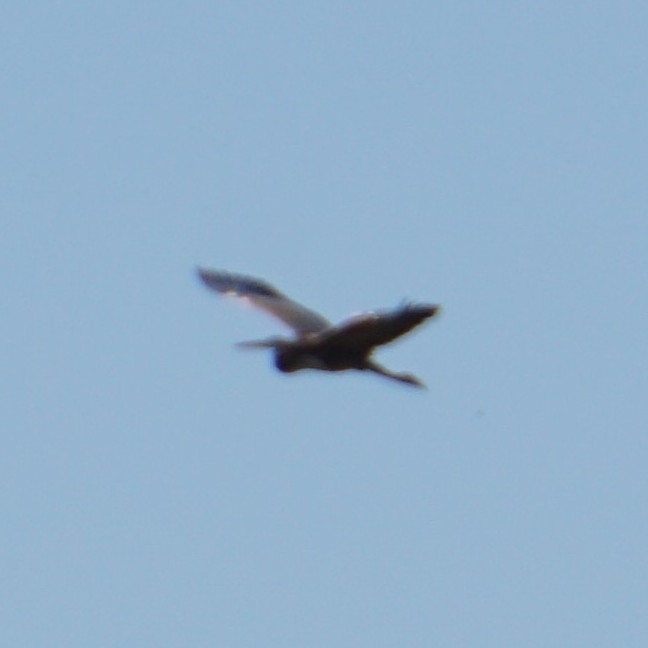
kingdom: Animalia
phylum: Chordata
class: Aves
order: Pelecaniformes
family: Ardeidae
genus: Ardea
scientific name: Ardea purpurea
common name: Purple heron
